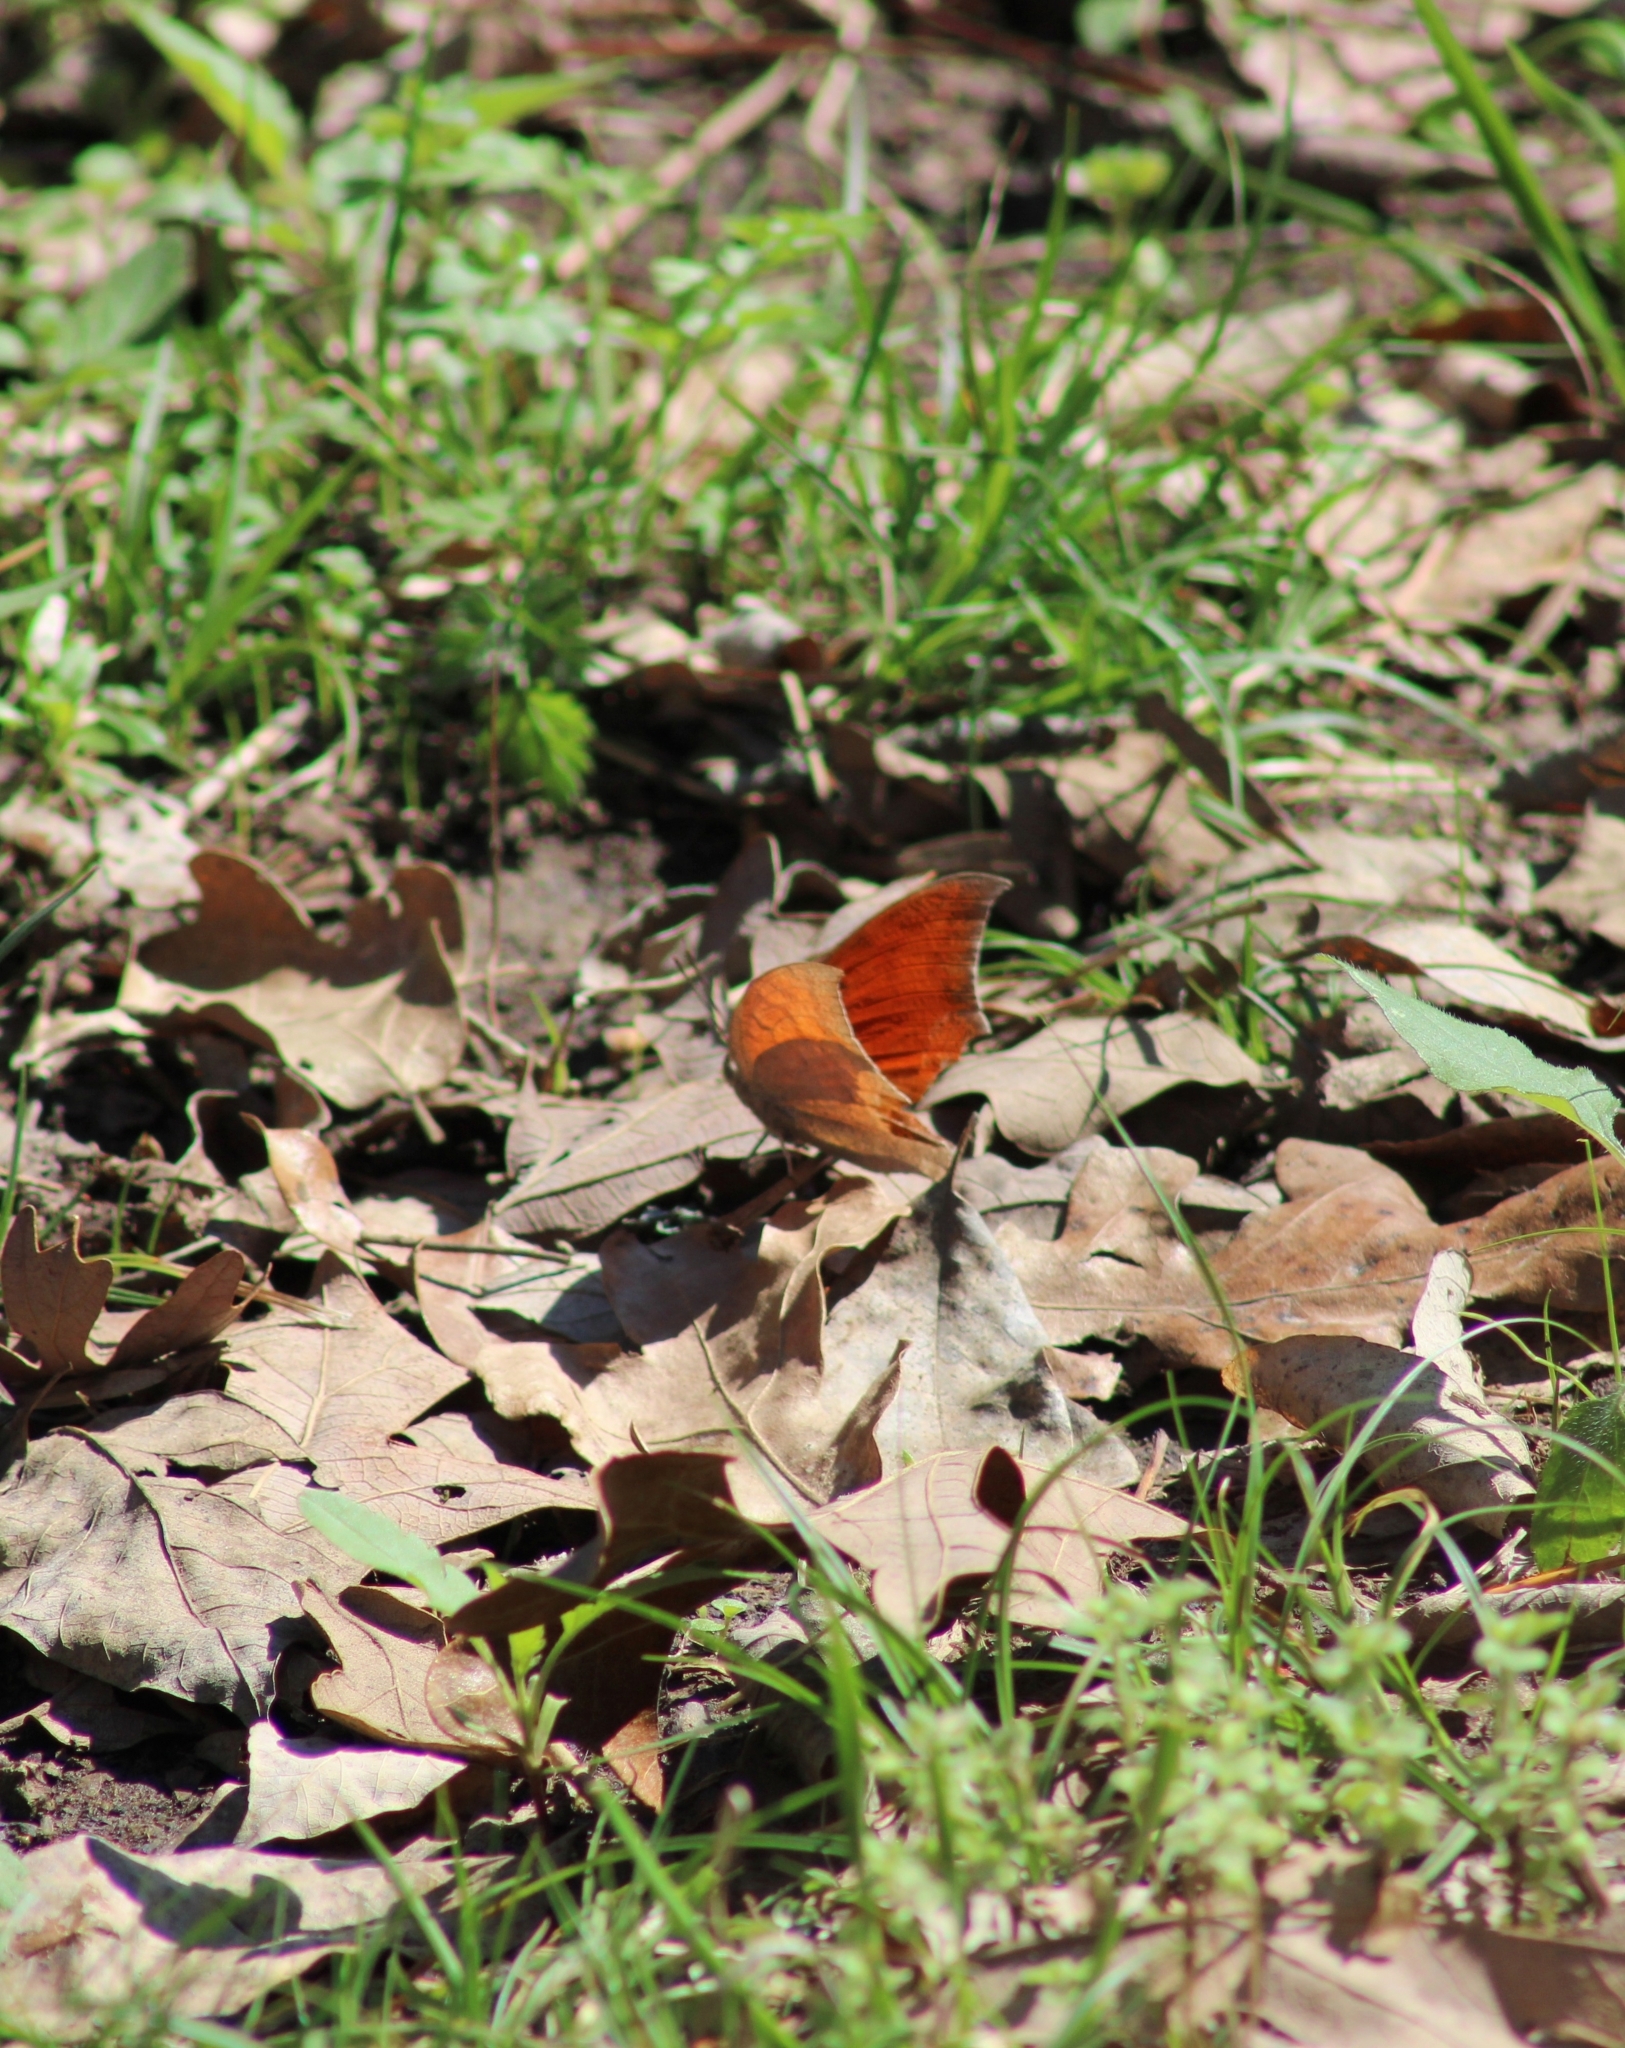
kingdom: Animalia
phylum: Arthropoda
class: Insecta
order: Lepidoptera
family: Nymphalidae
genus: Anaea
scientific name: Anaea andria
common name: Goatweed leafwing
